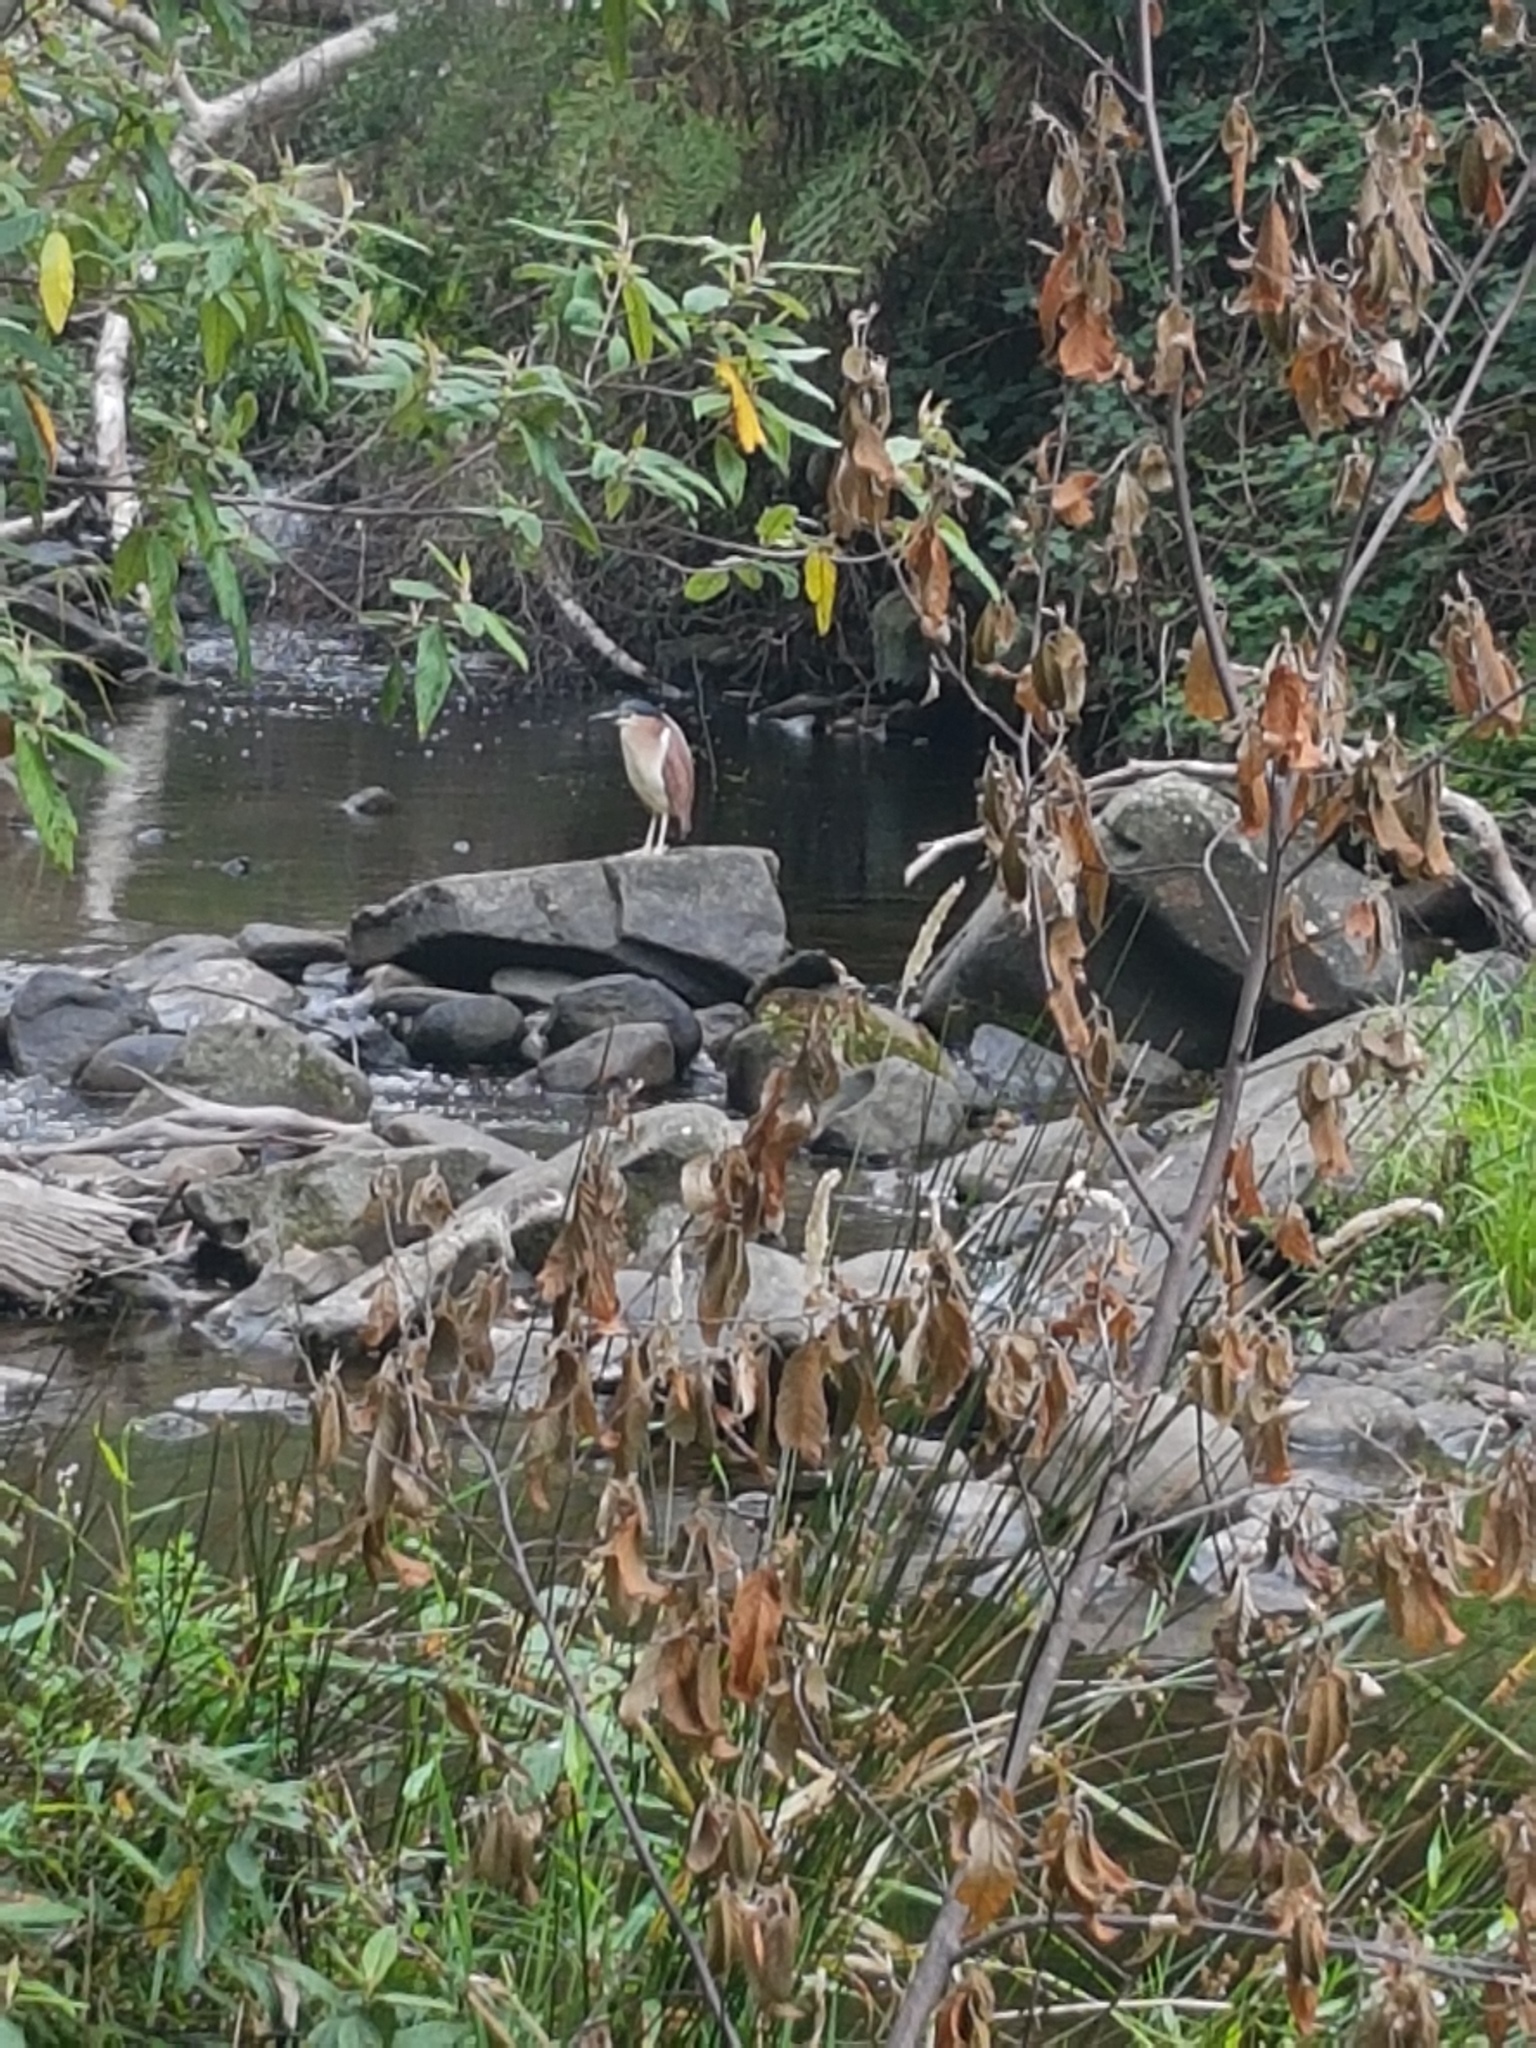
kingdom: Animalia
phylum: Chordata
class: Aves
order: Pelecaniformes
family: Ardeidae
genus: Nycticorax
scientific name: Nycticorax caledonicus
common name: Rufous night-heron
